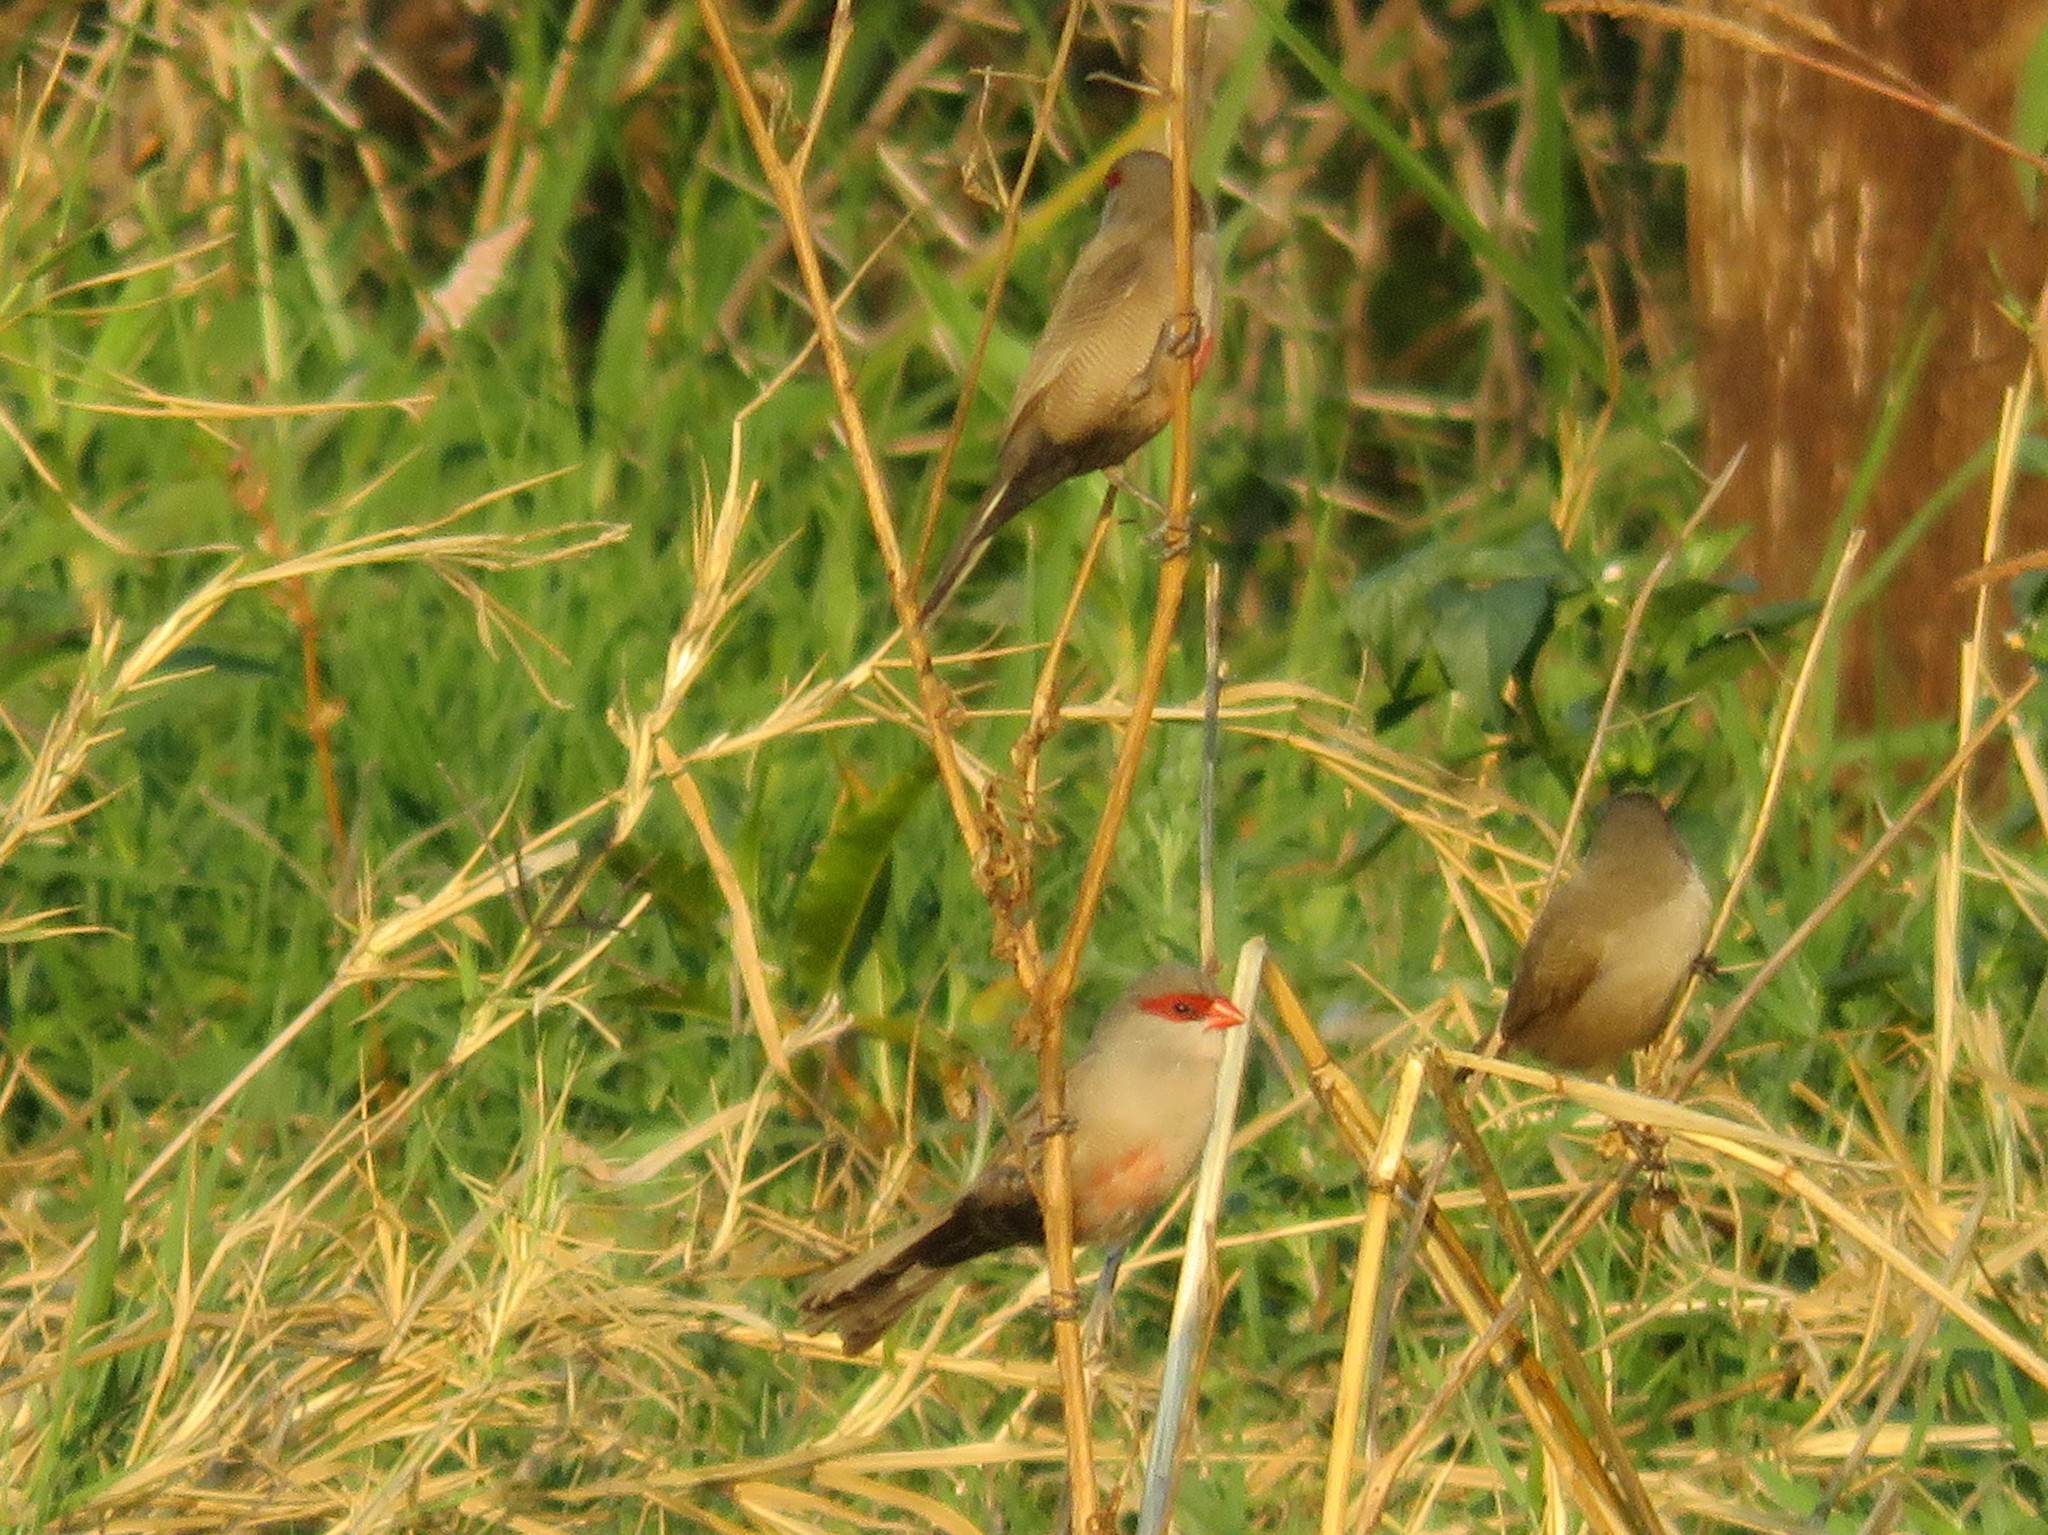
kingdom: Animalia
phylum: Chordata
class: Aves
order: Passeriformes
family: Estrildidae
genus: Estrilda
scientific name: Estrilda astrild
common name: Common waxbill
